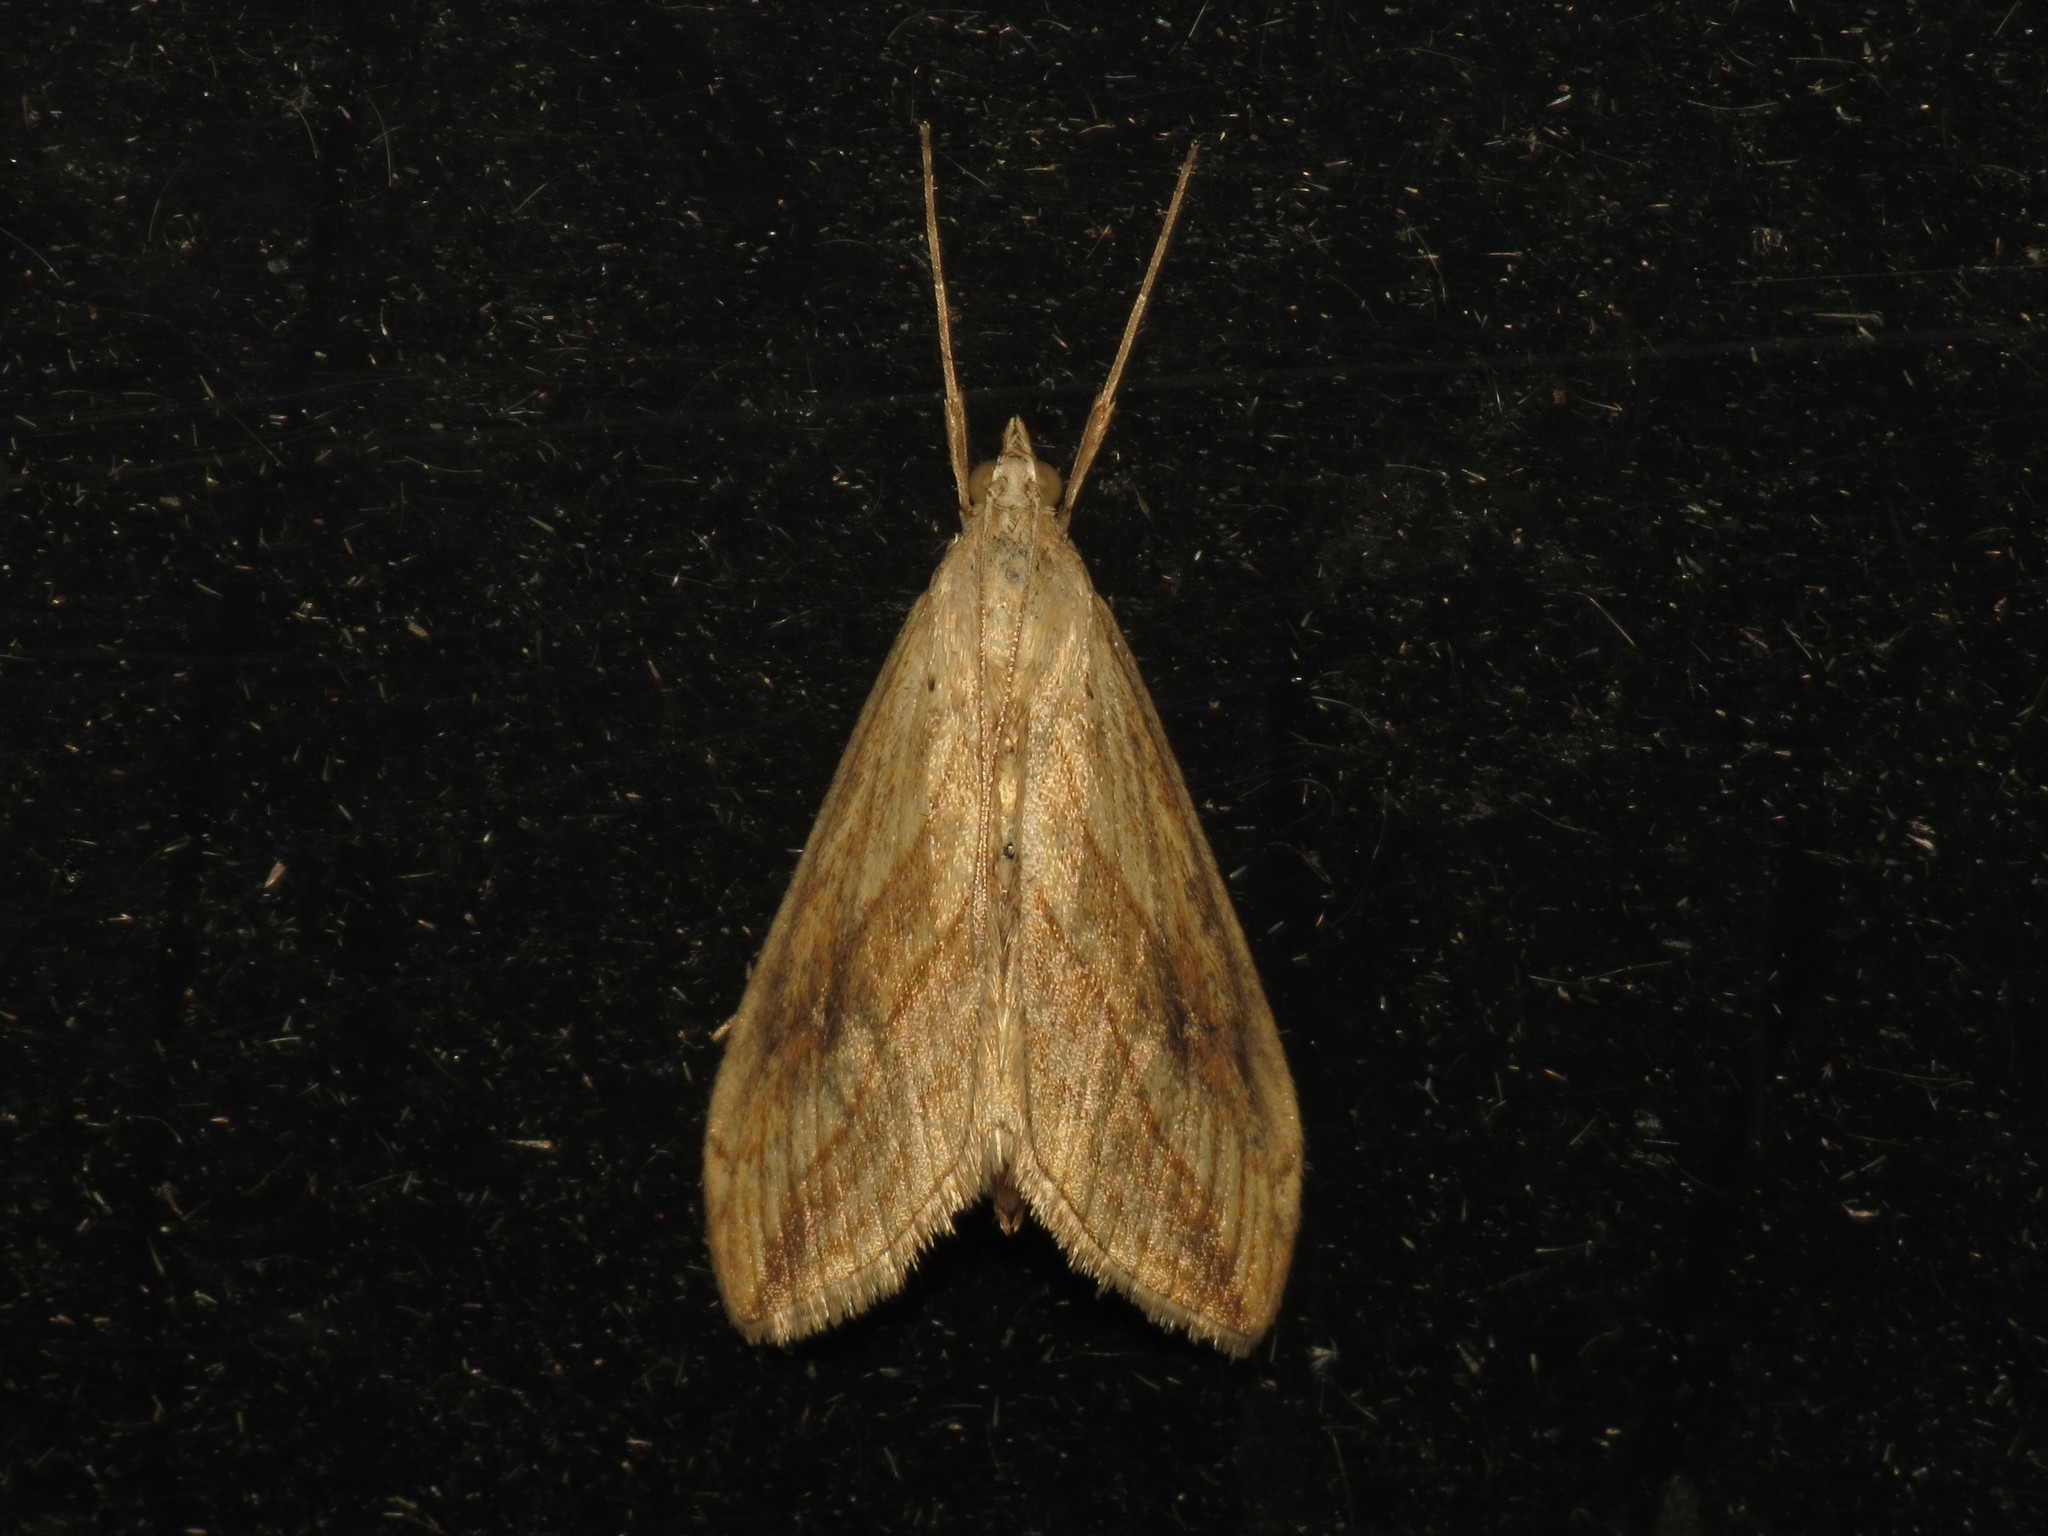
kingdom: Animalia
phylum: Arthropoda
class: Insecta
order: Lepidoptera
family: Crambidae
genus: Evergestis
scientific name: Evergestis forficalis
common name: Garden pebble
